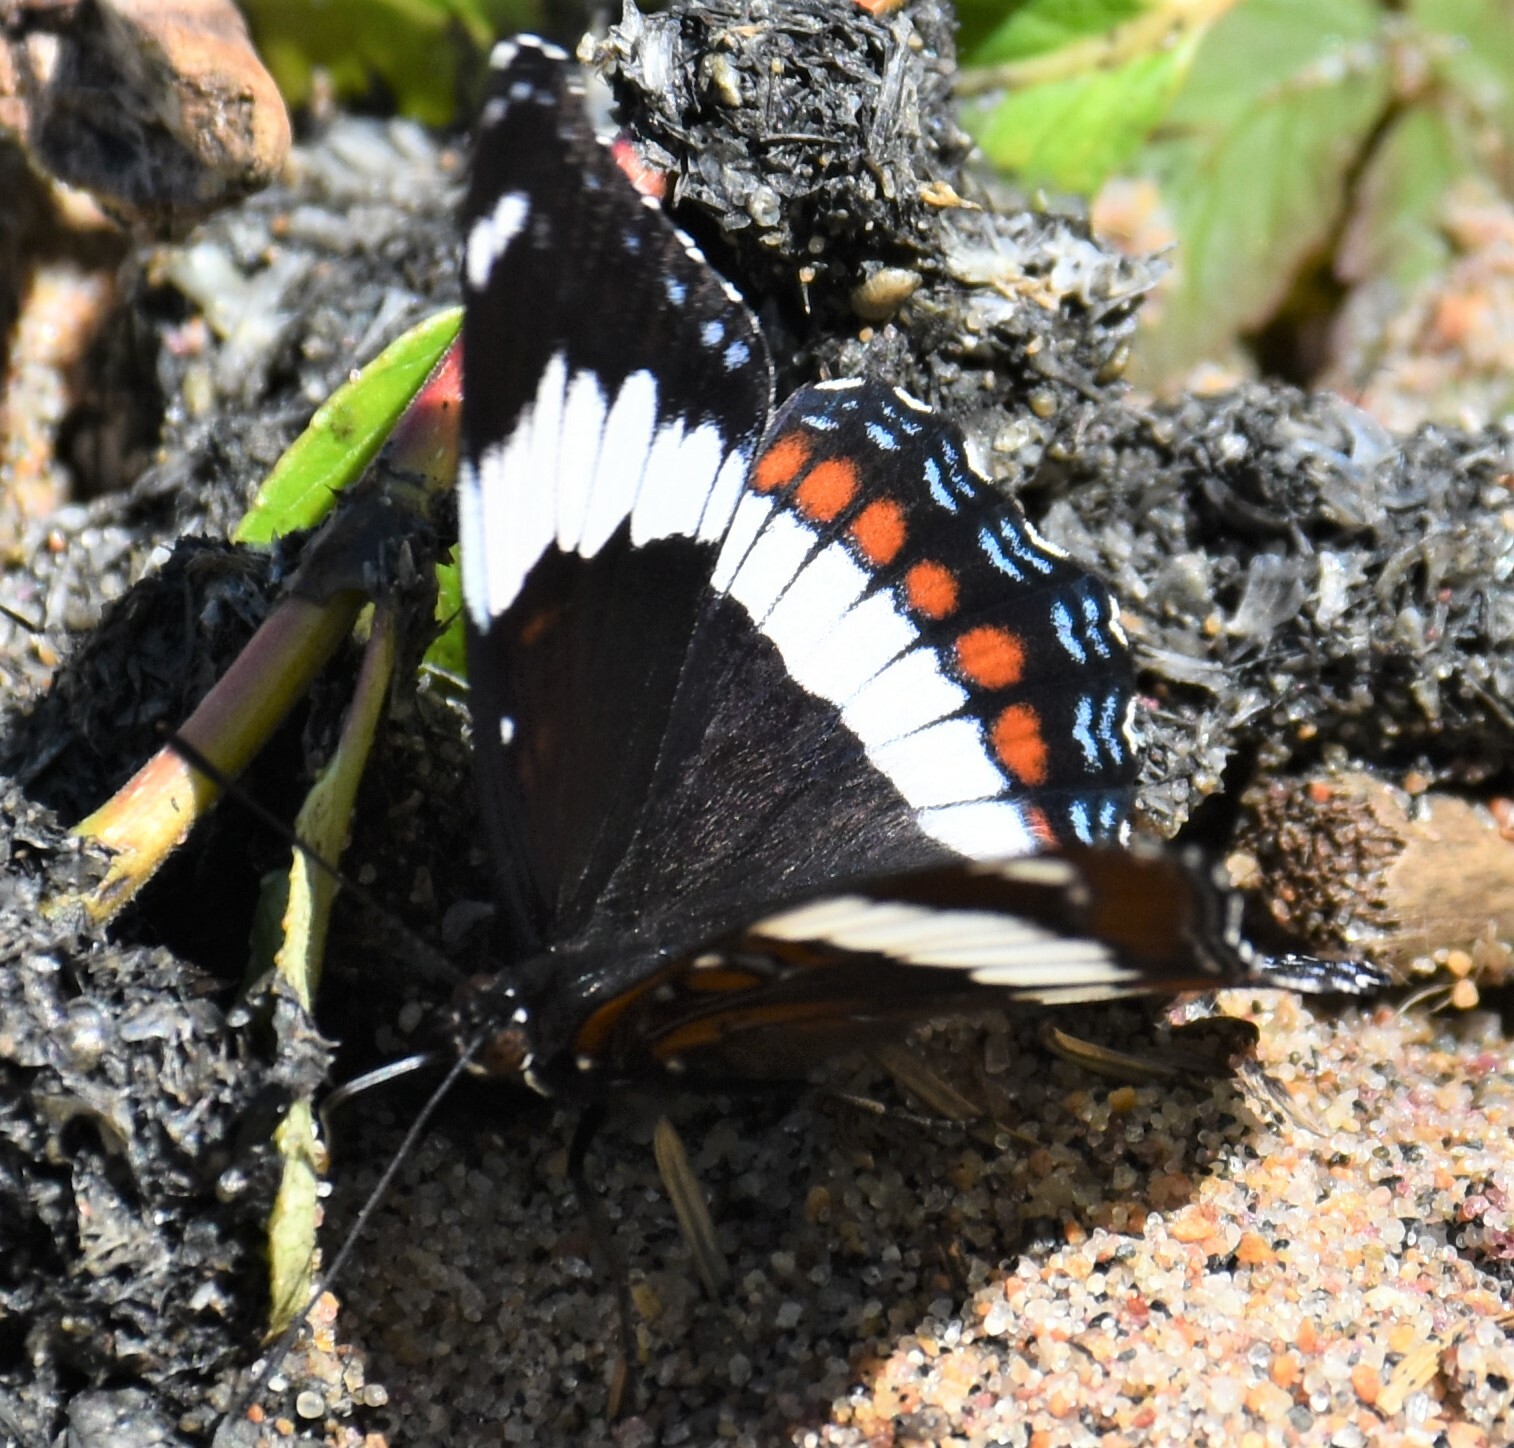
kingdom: Animalia
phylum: Arthropoda
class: Insecta
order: Lepidoptera
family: Nymphalidae
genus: Limenitis
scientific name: Limenitis arthemis
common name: Red-spotted admiral
